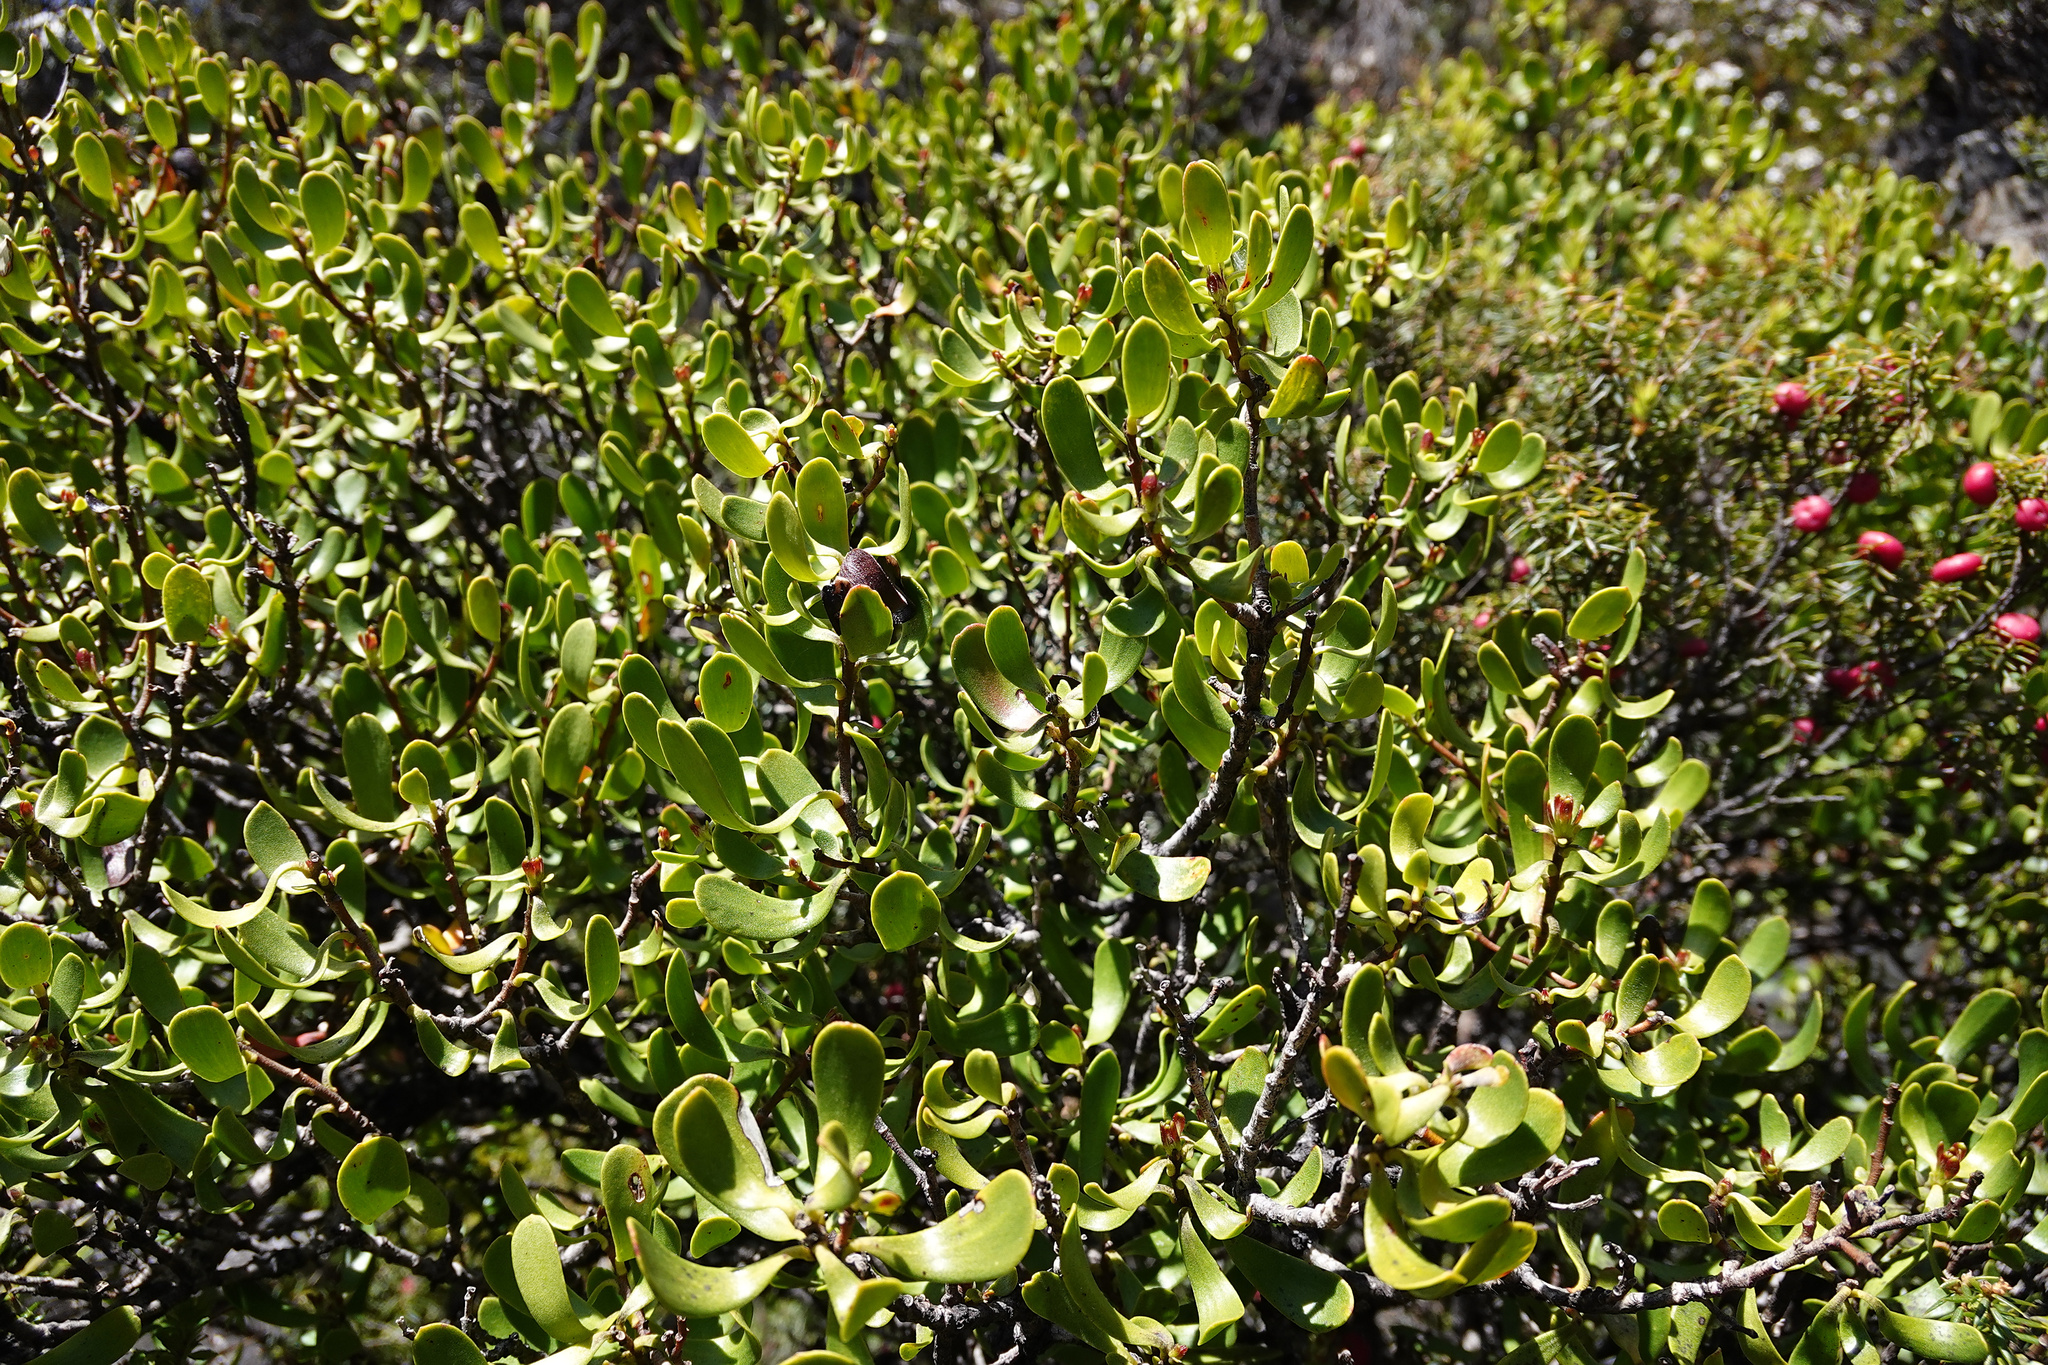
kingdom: Plantae
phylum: Tracheophyta
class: Magnoliopsida
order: Proteales
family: Proteaceae
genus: Persoonia
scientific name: Persoonia gunnii
